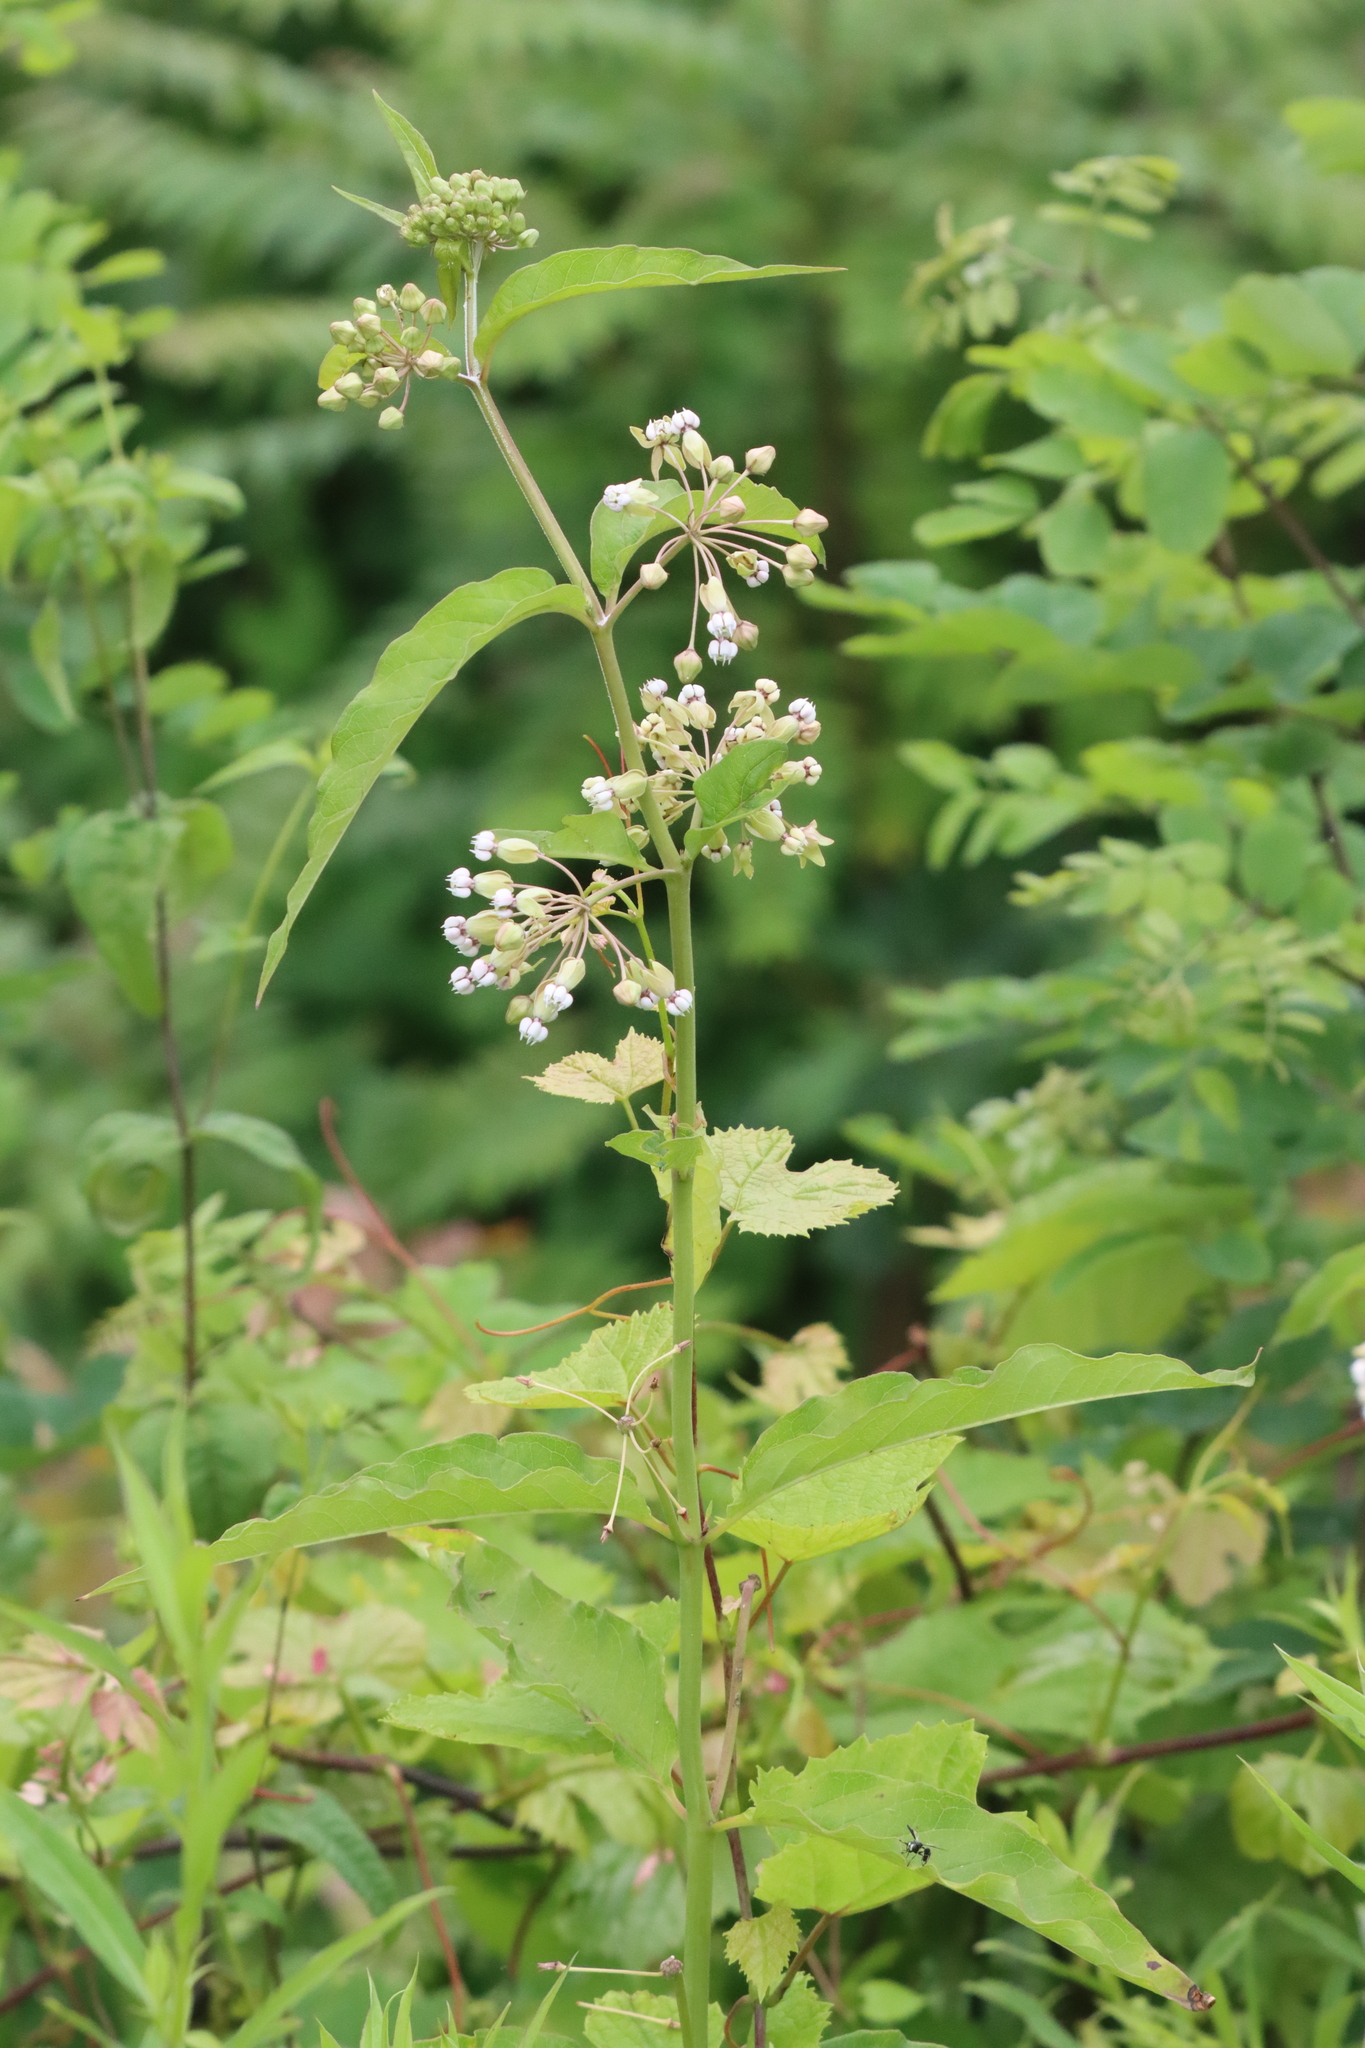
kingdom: Plantae
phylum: Tracheophyta
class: Magnoliopsida
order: Gentianales
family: Apocynaceae
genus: Asclepias
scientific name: Asclepias exaltata
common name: Poke milkweed
